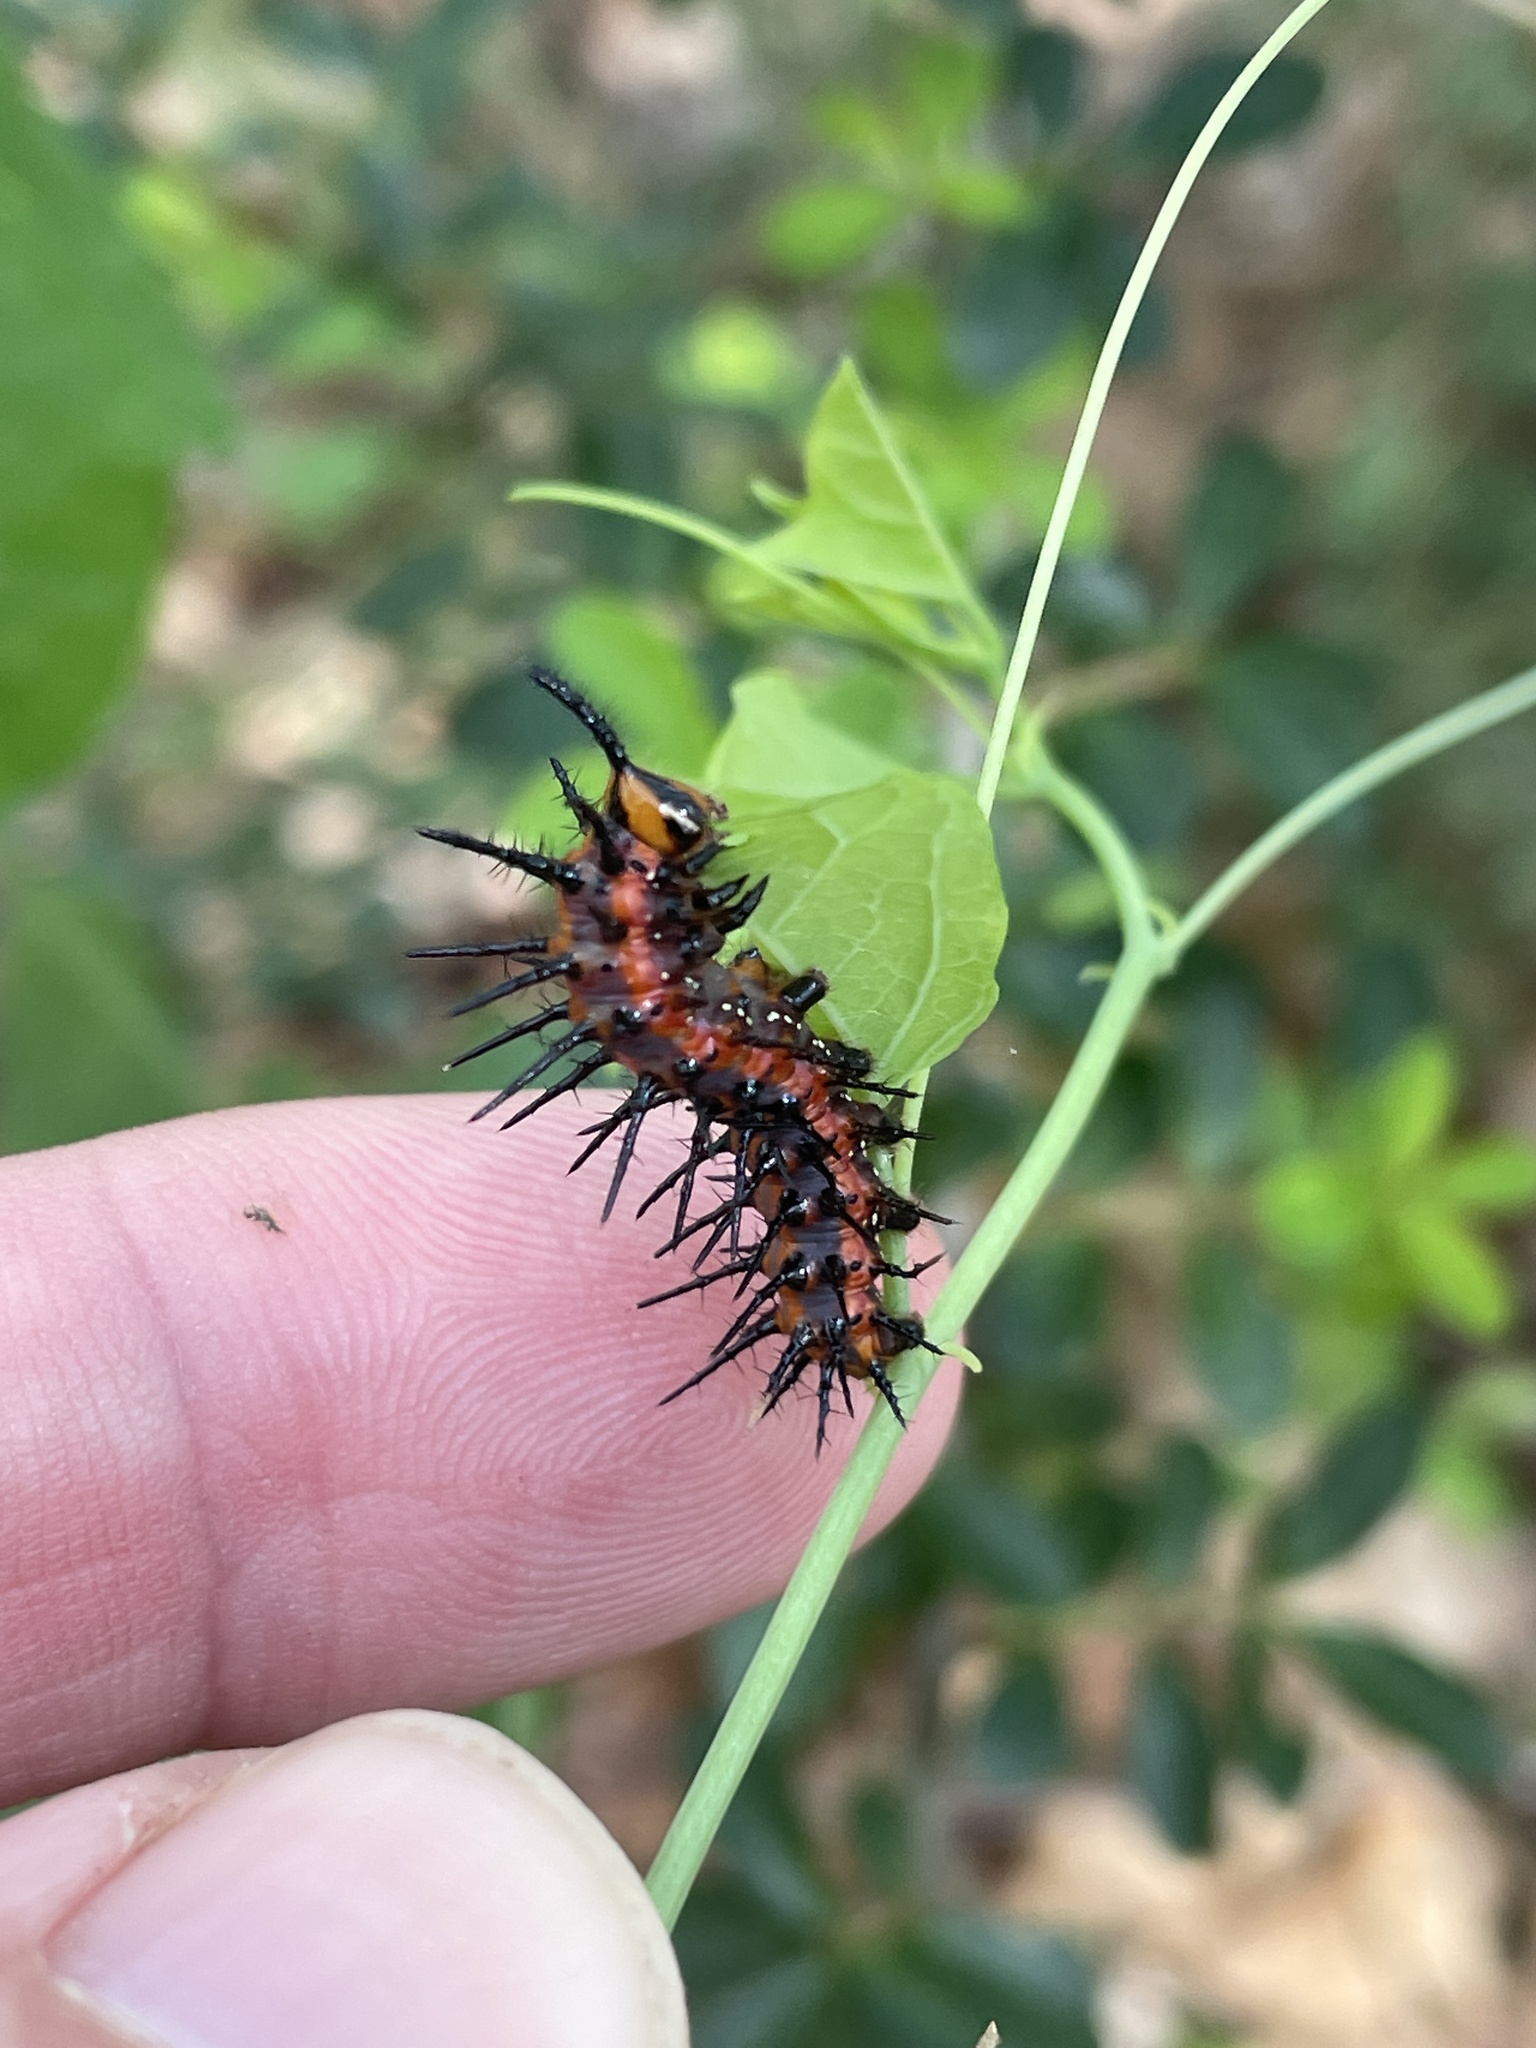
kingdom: Animalia
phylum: Arthropoda
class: Insecta
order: Lepidoptera
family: Nymphalidae
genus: Dione
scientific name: Dione vanillae
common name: Gulf fritillary
